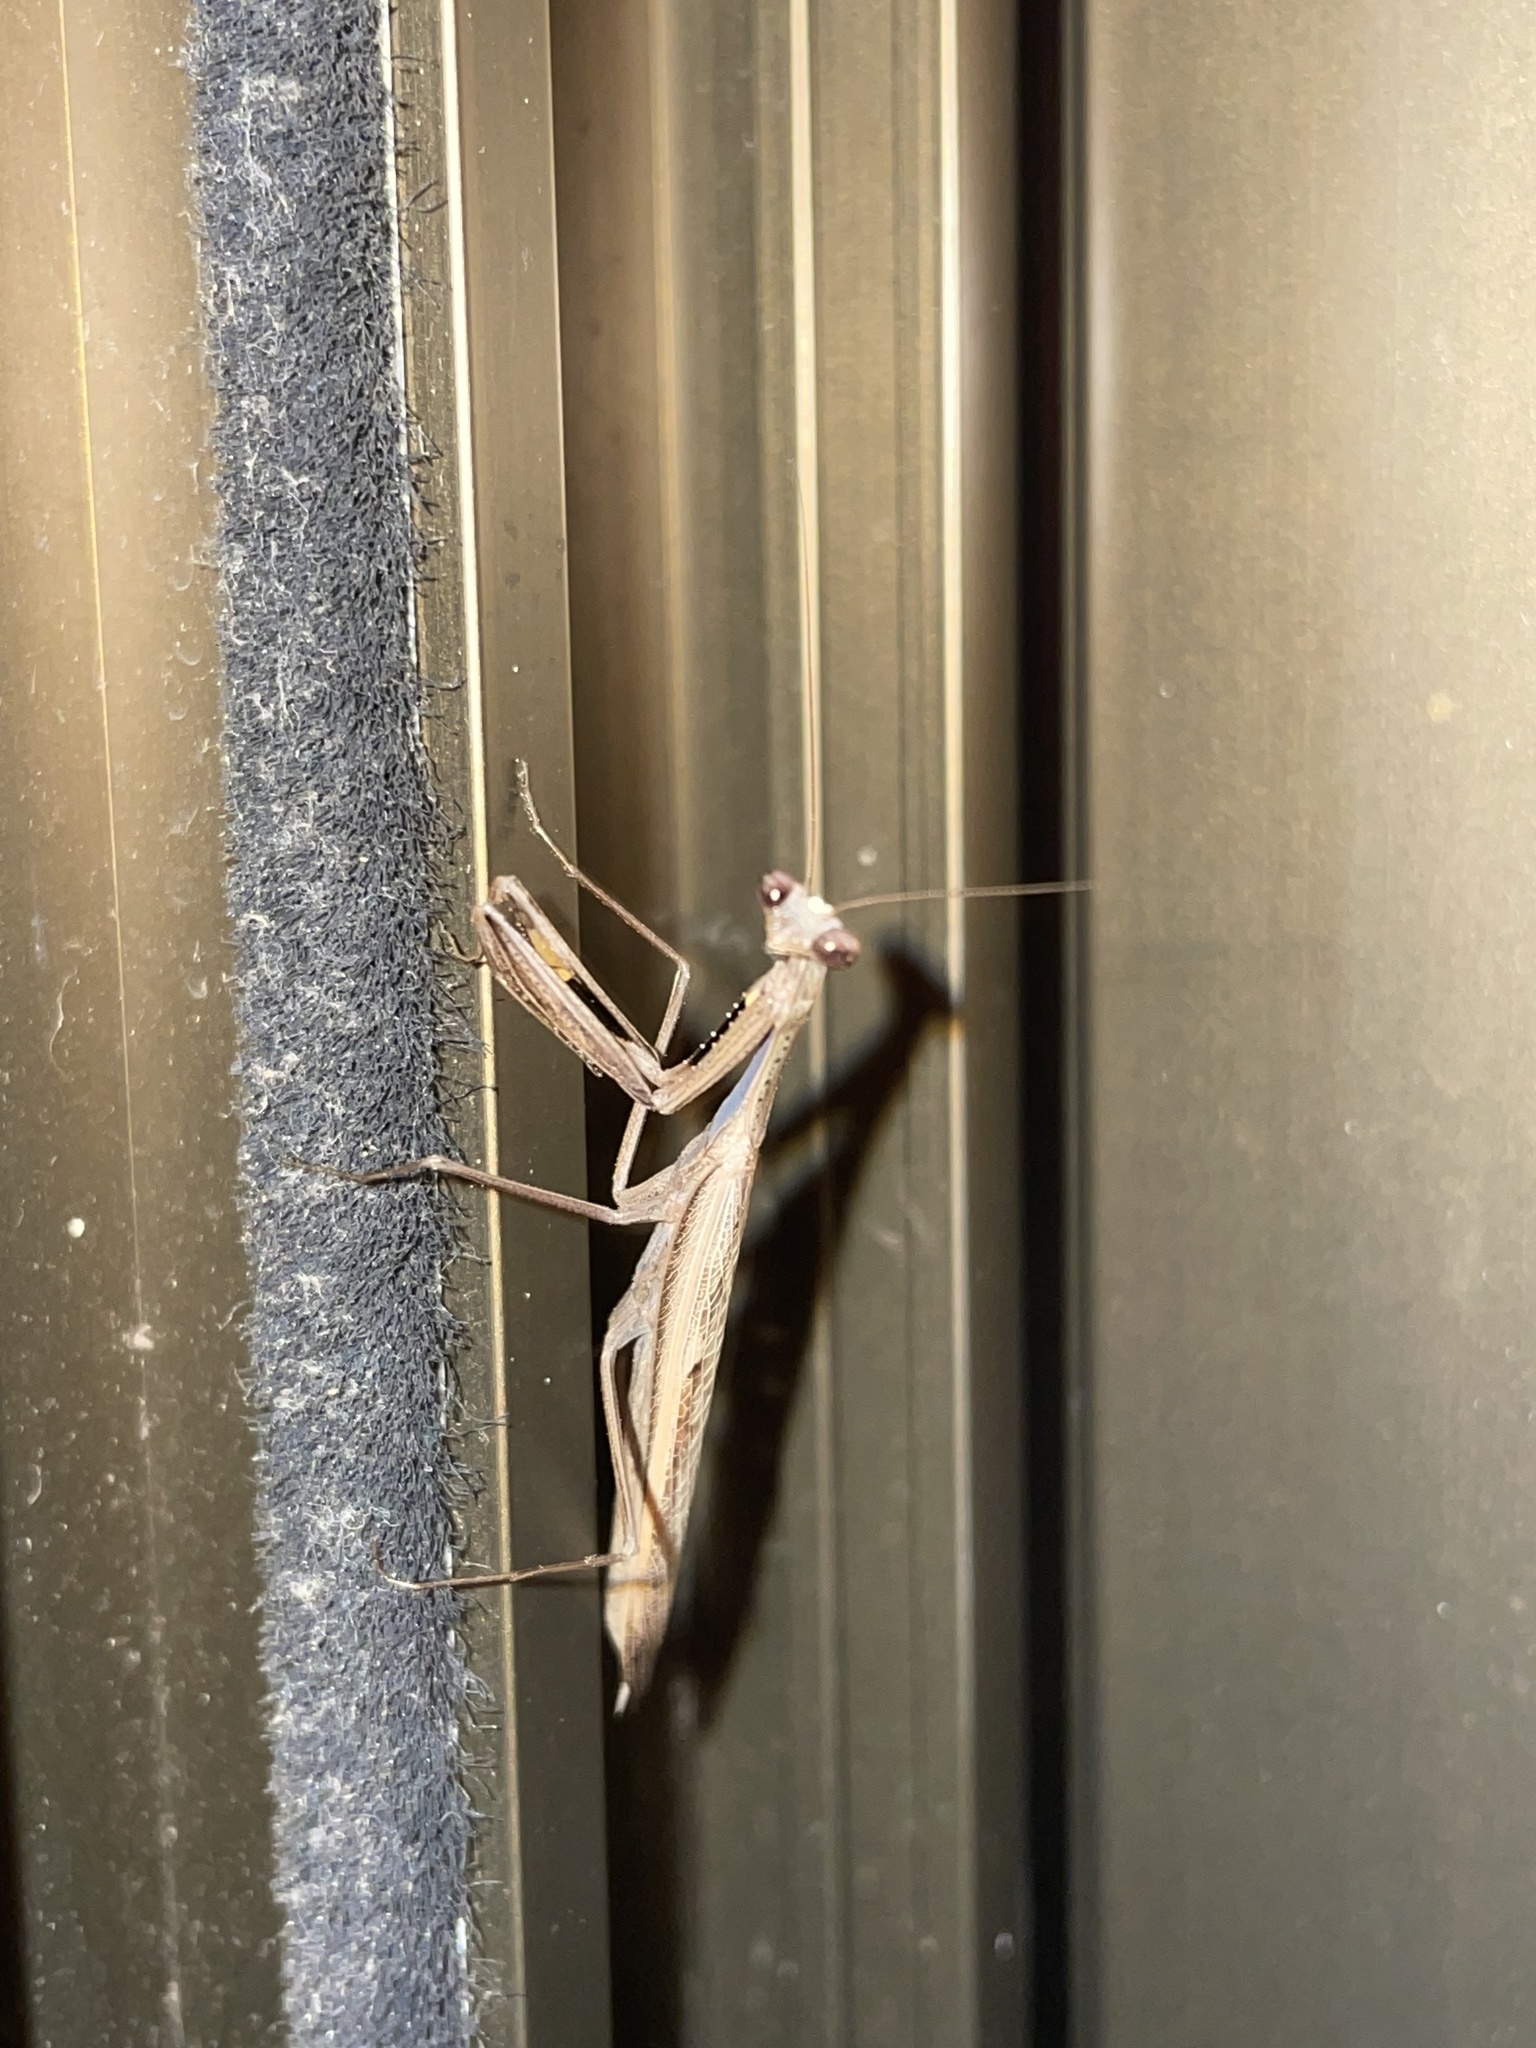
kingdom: Animalia
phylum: Arthropoda
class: Insecta
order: Mantodea
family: Mantidae
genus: Statilia
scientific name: Statilia apicalis
